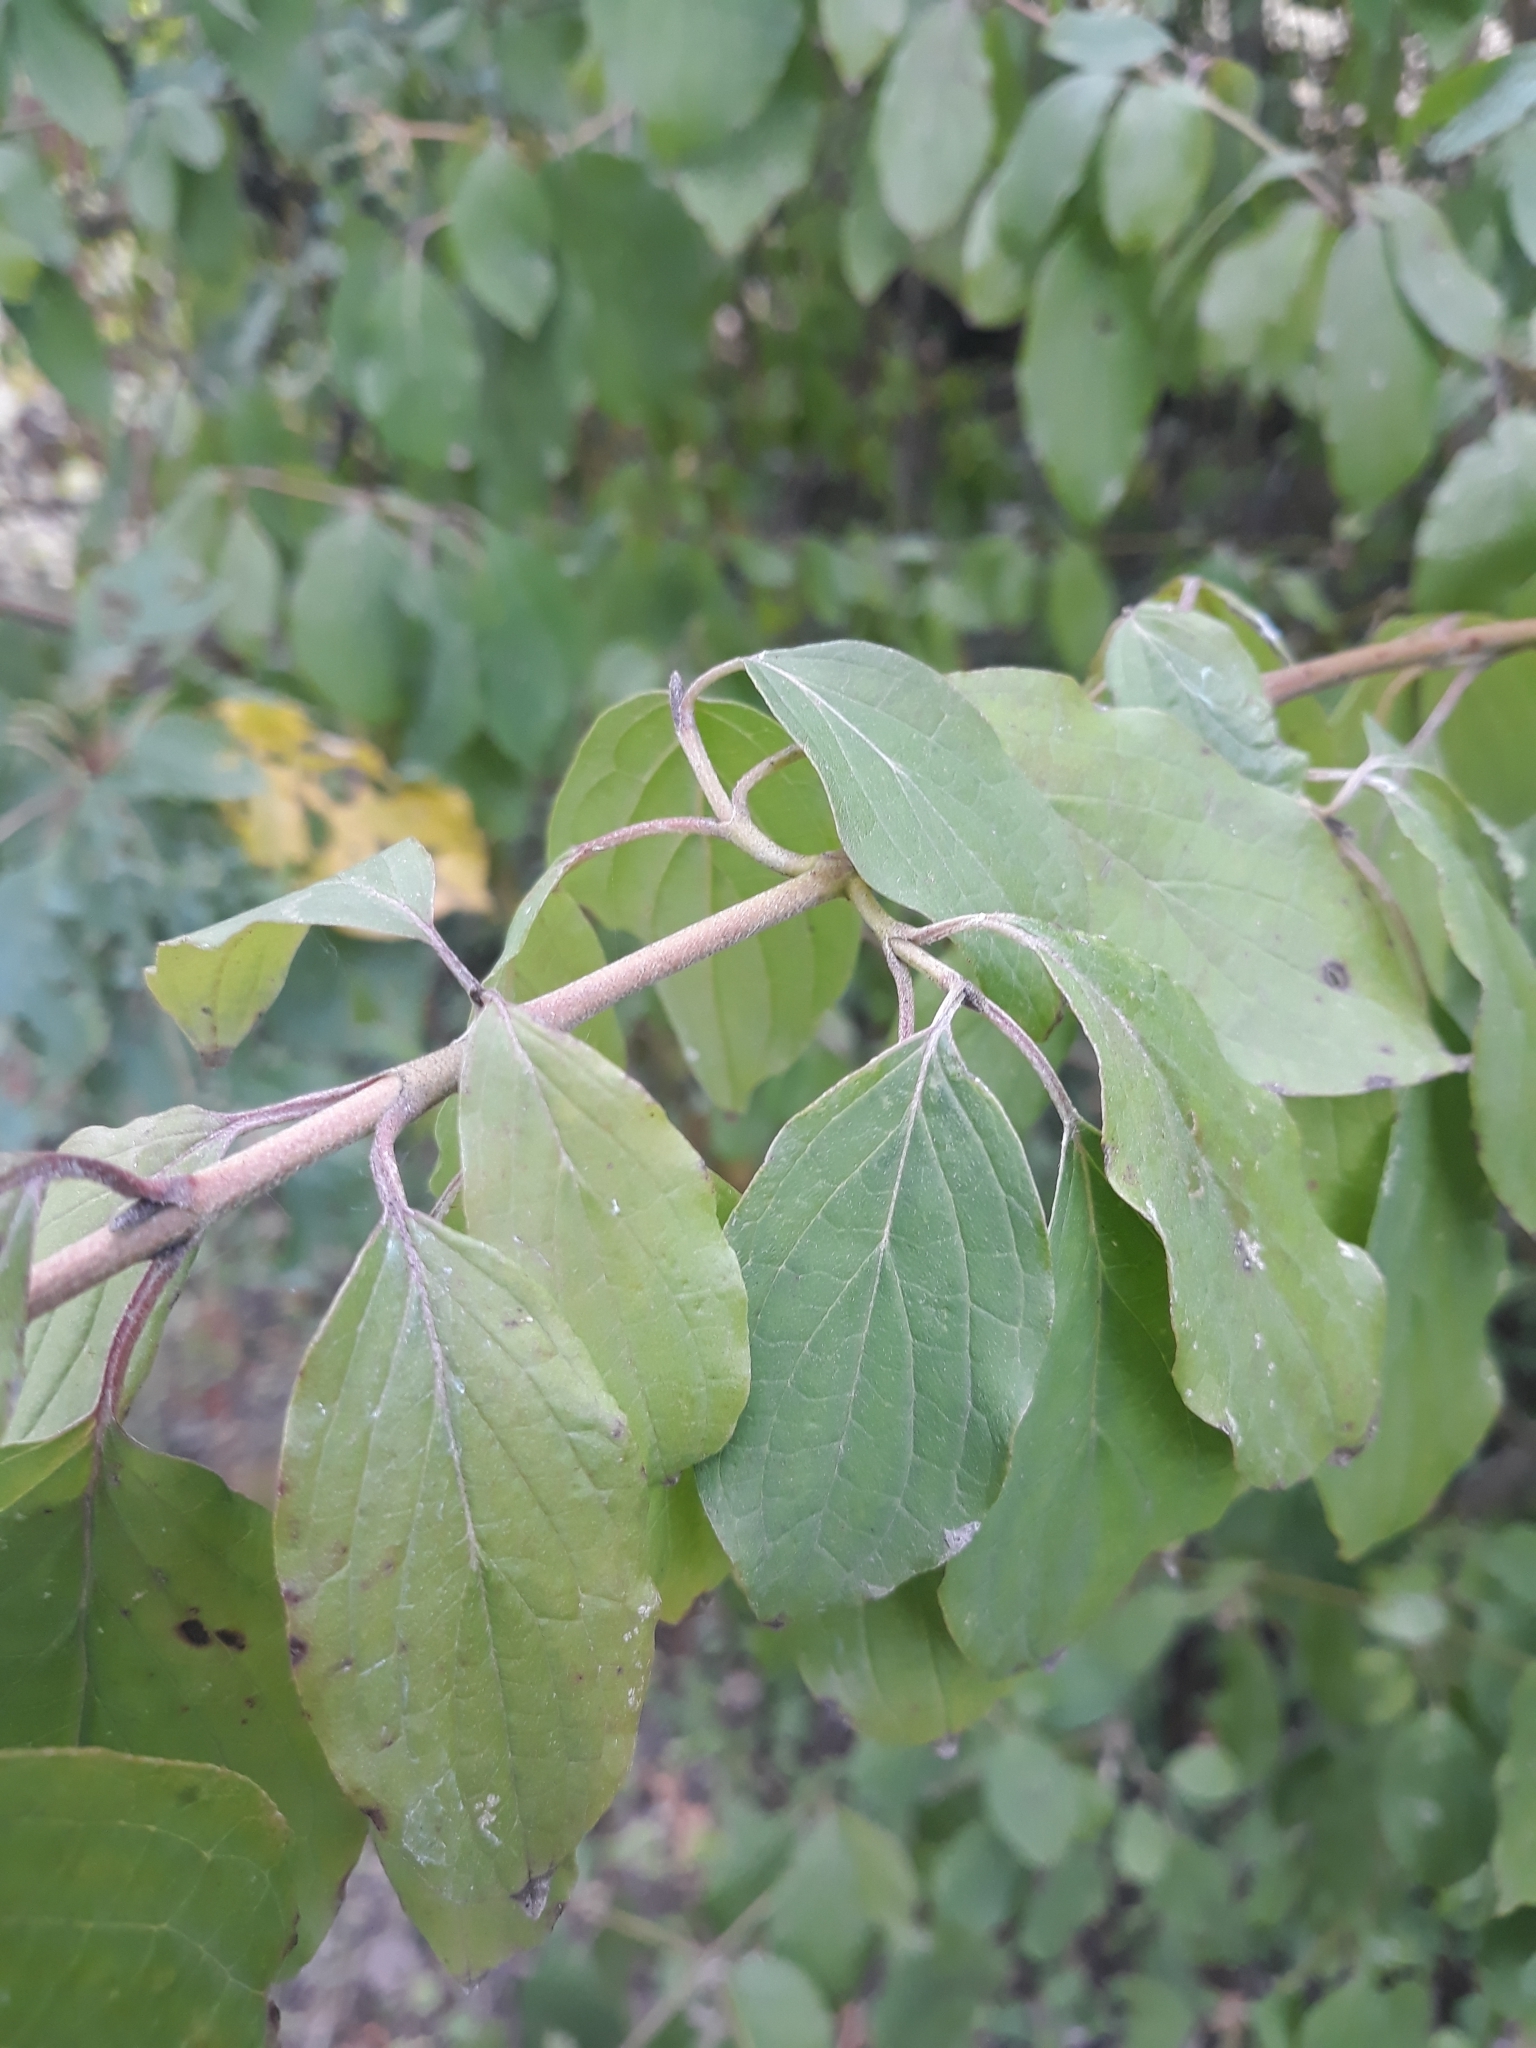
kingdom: Plantae
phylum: Tracheophyta
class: Magnoliopsida
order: Cornales
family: Cornaceae
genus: Cornus
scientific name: Cornus sanguinea
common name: Dogwood
